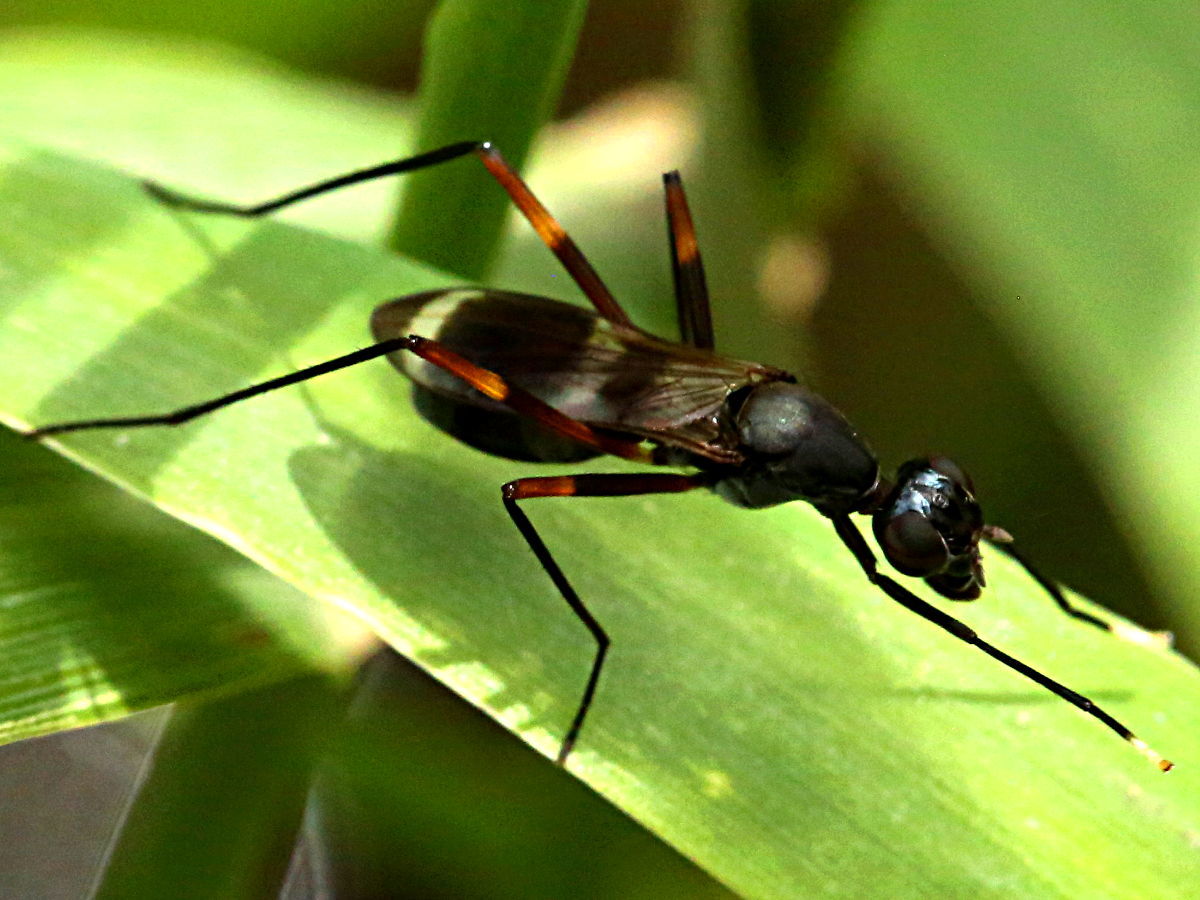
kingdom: Animalia
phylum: Arthropoda
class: Insecta
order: Diptera
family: Micropezidae
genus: Taeniaptera
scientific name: Taeniaptera trivittata
